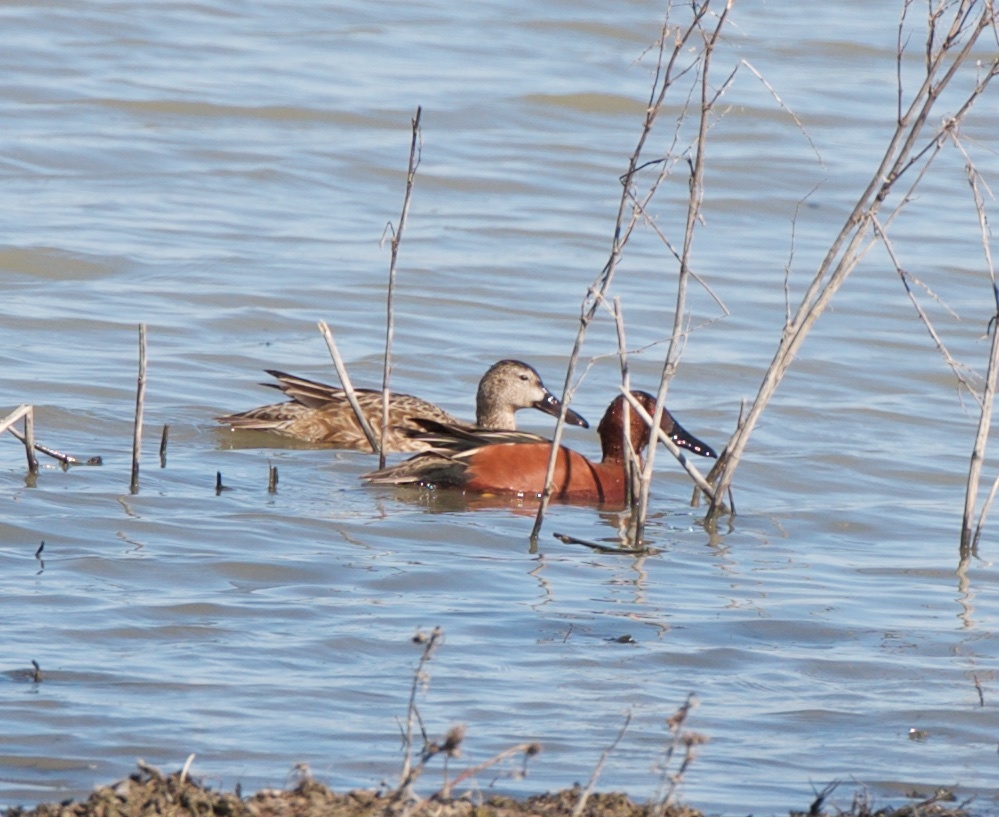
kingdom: Animalia
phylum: Chordata
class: Aves
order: Anseriformes
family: Anatidae
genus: Spatula
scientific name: Spatula cyanoptera
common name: Cinnamon teal
